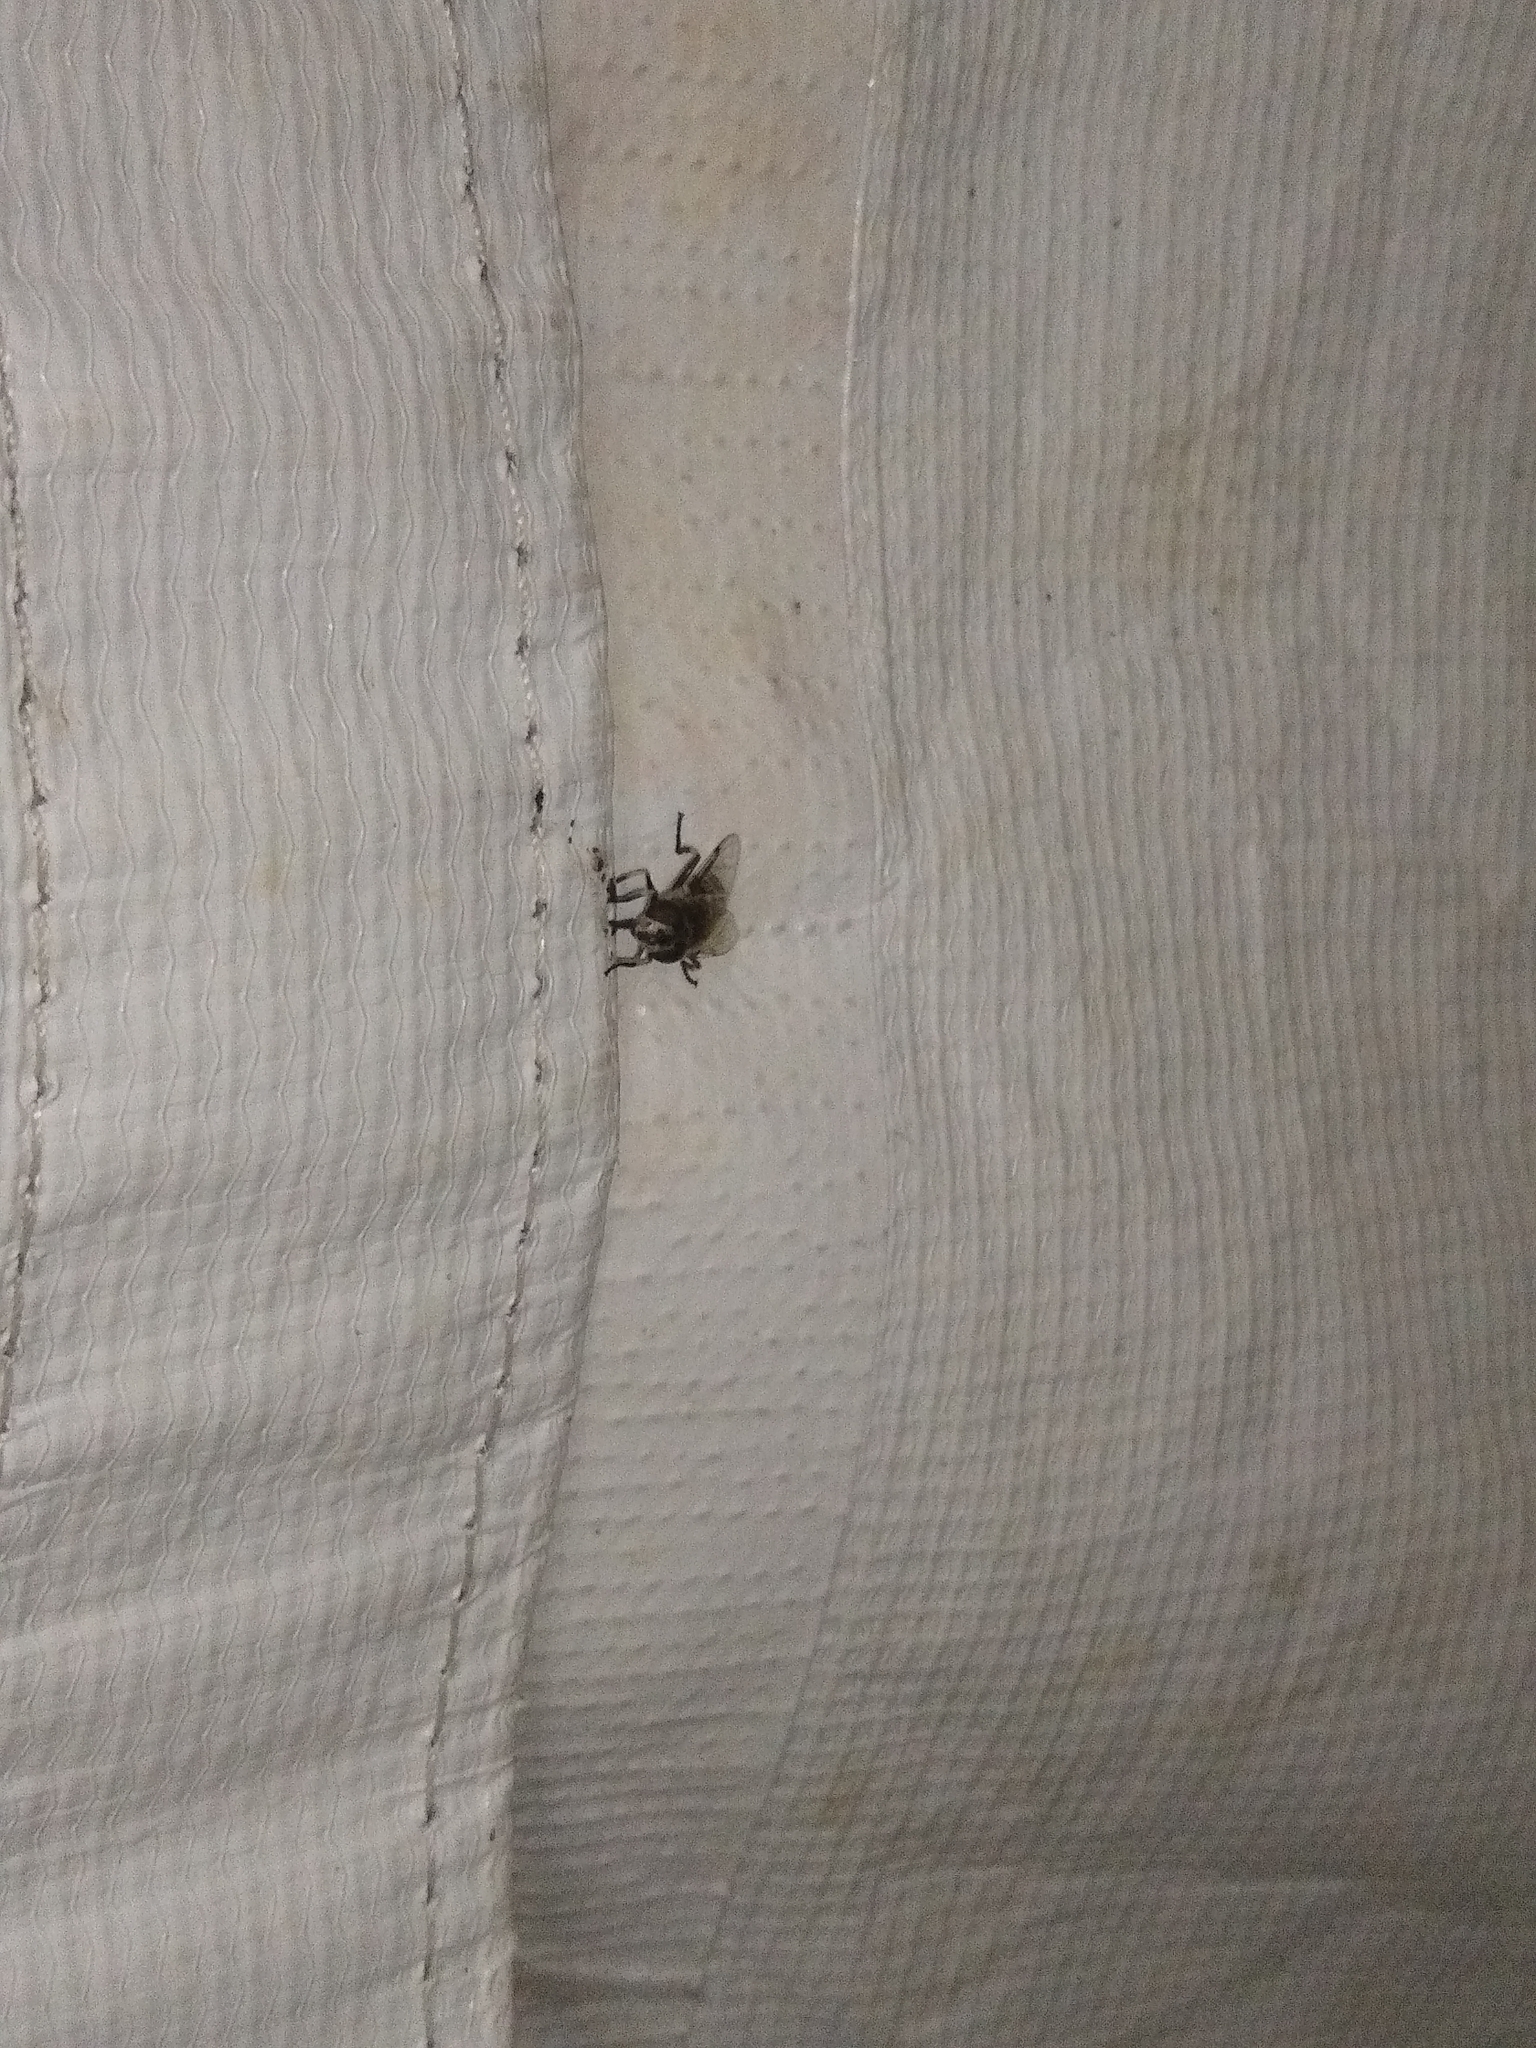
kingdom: Animalia
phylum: Arthropoda
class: Insecta
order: Diptera
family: Syrphidae
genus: Eristalis
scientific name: Eristalis dimidiata
